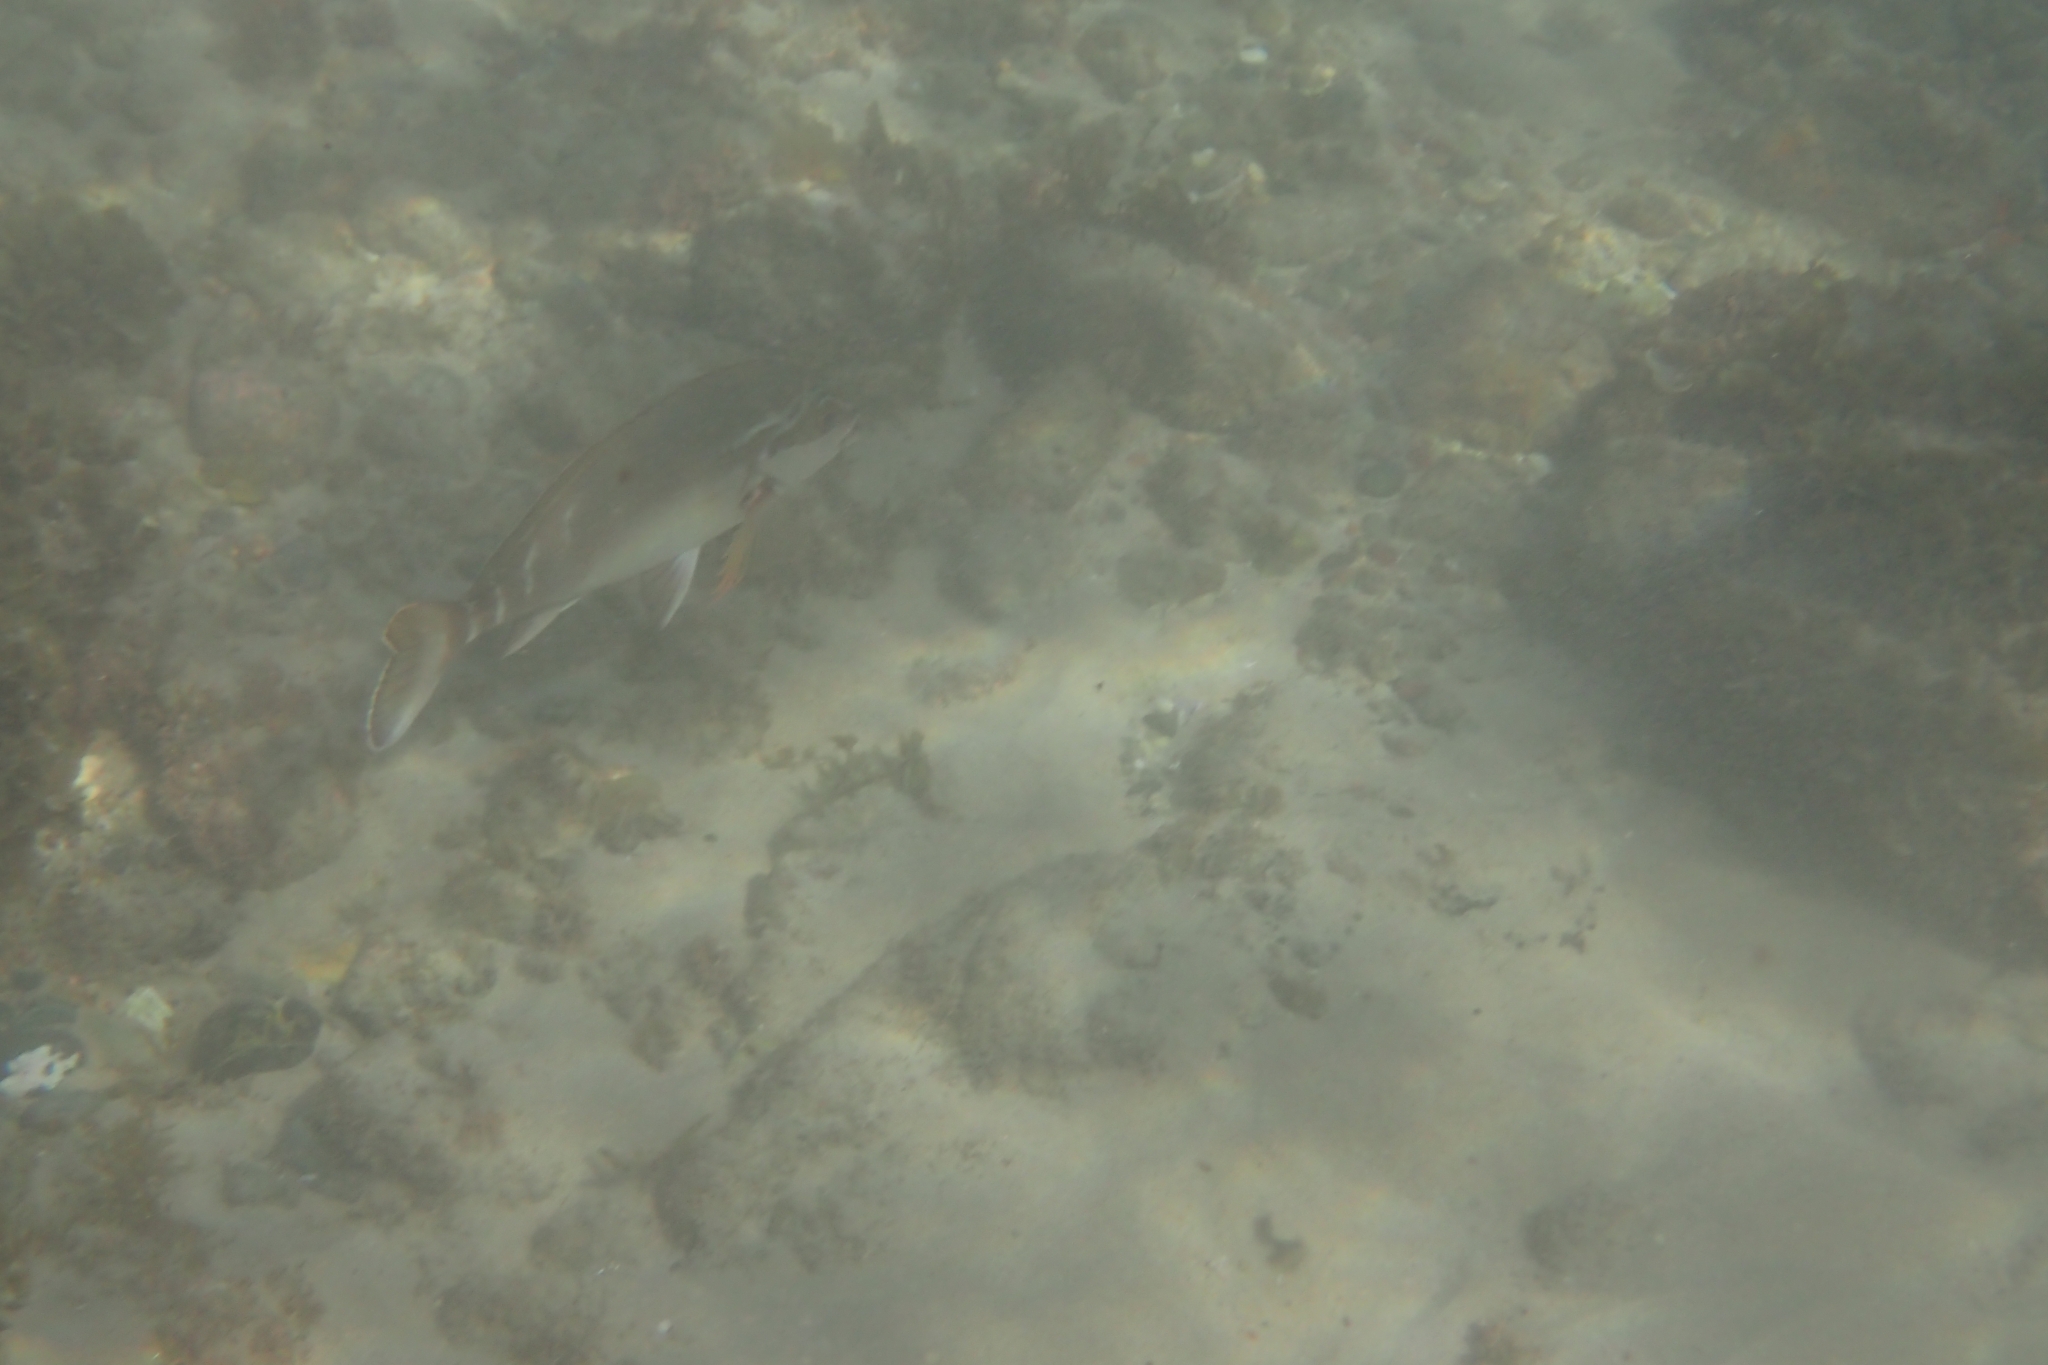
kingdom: Animalia
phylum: Chordata
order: Perciformes
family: Latridae
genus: Morwong
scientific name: Morwong fuscus
